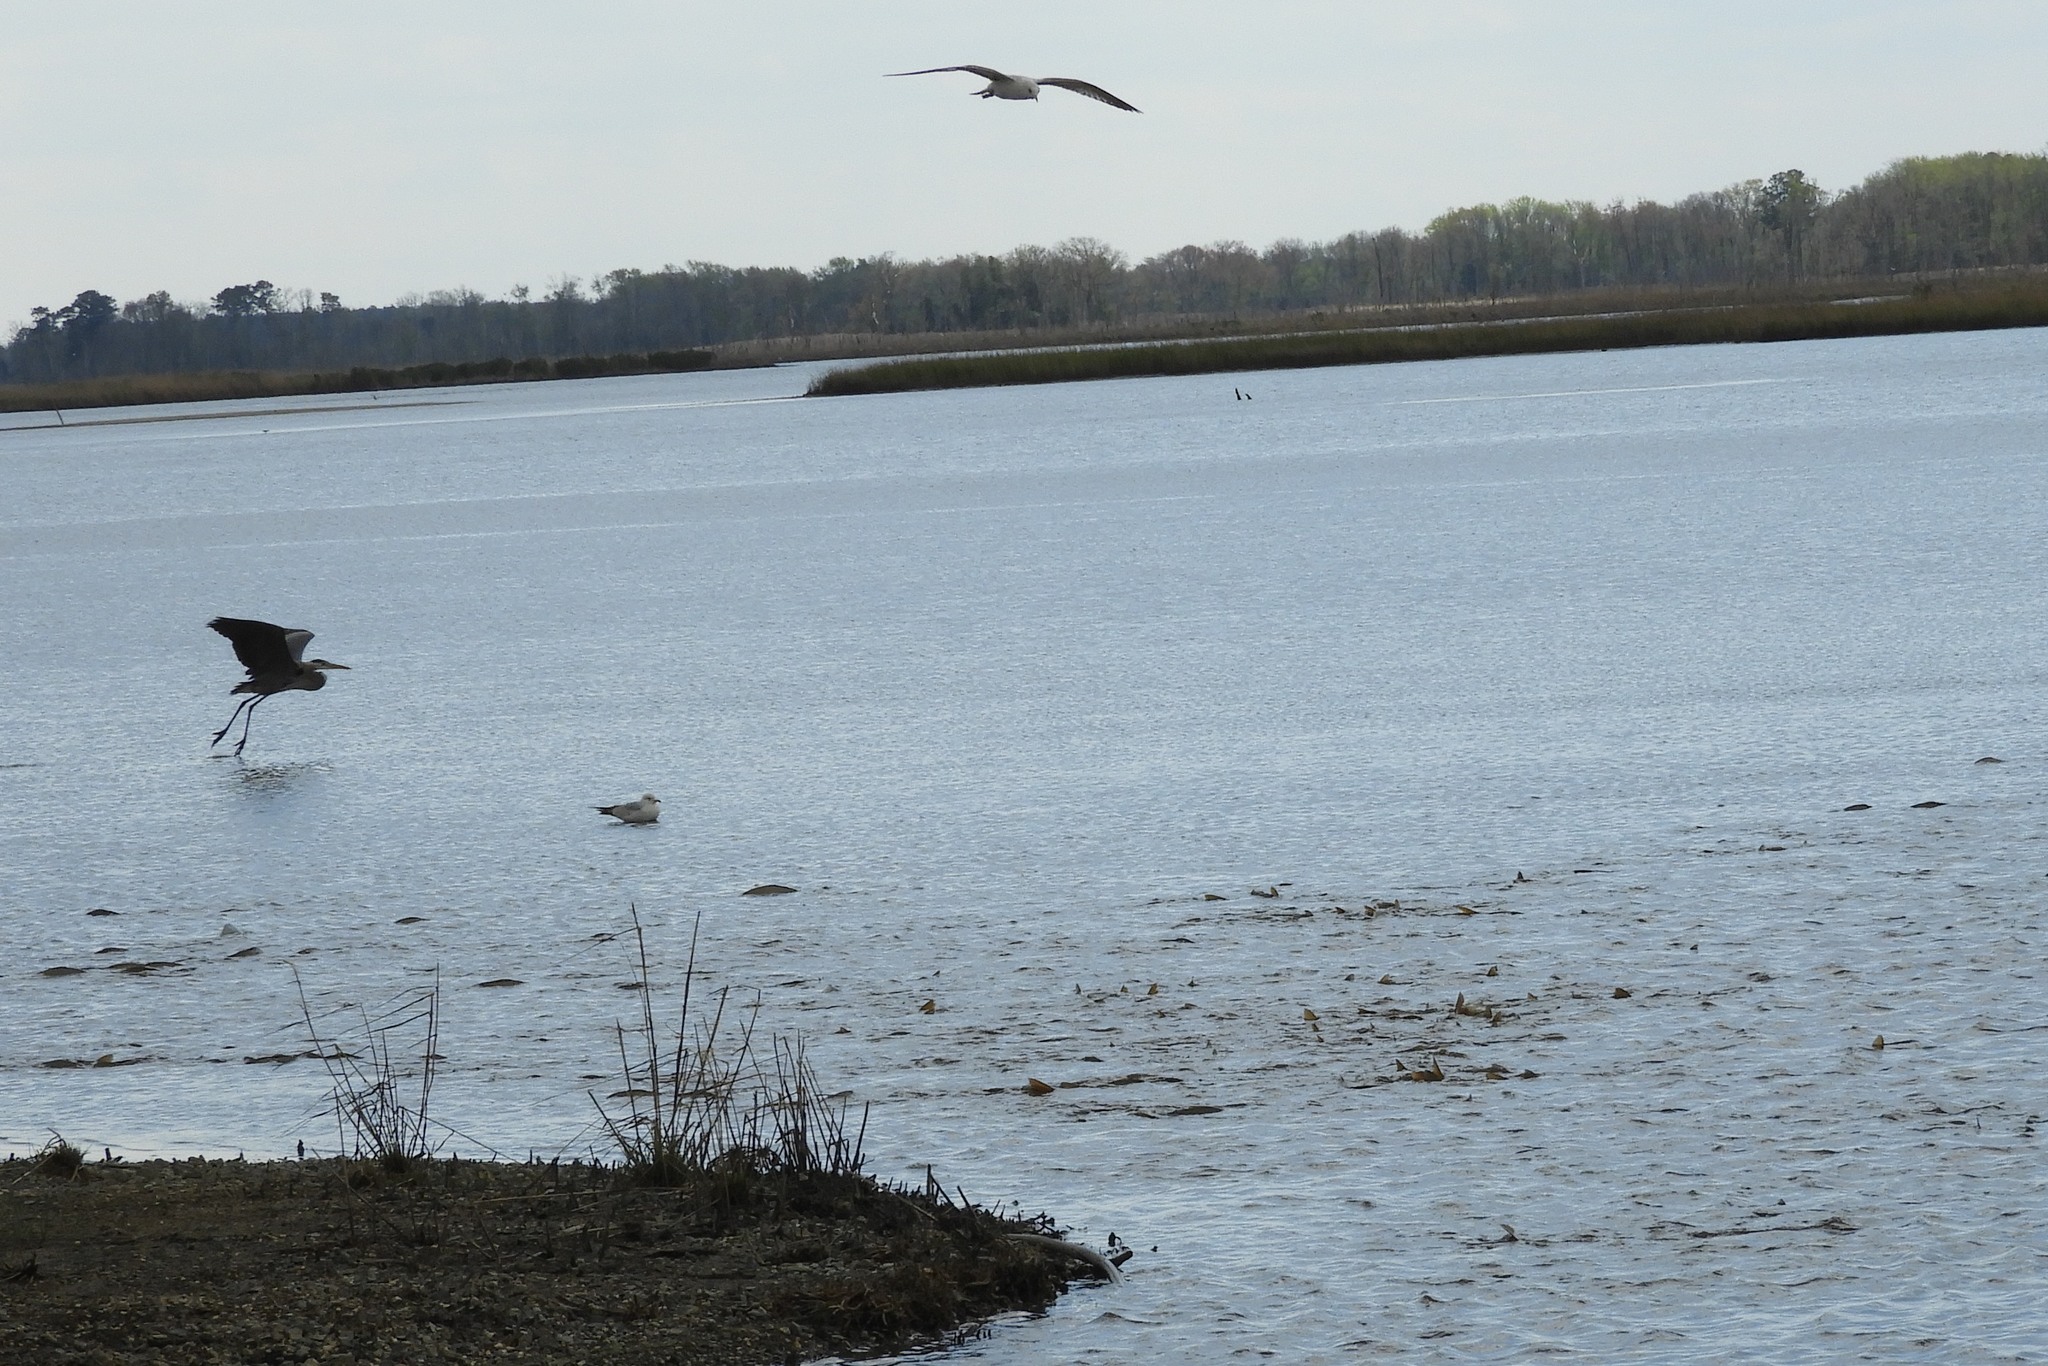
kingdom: Animalia
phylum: Chordata
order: Cypriniformes
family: Cyprinidae
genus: Cyprinus
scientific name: Cyprinus carpio
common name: Common carp
